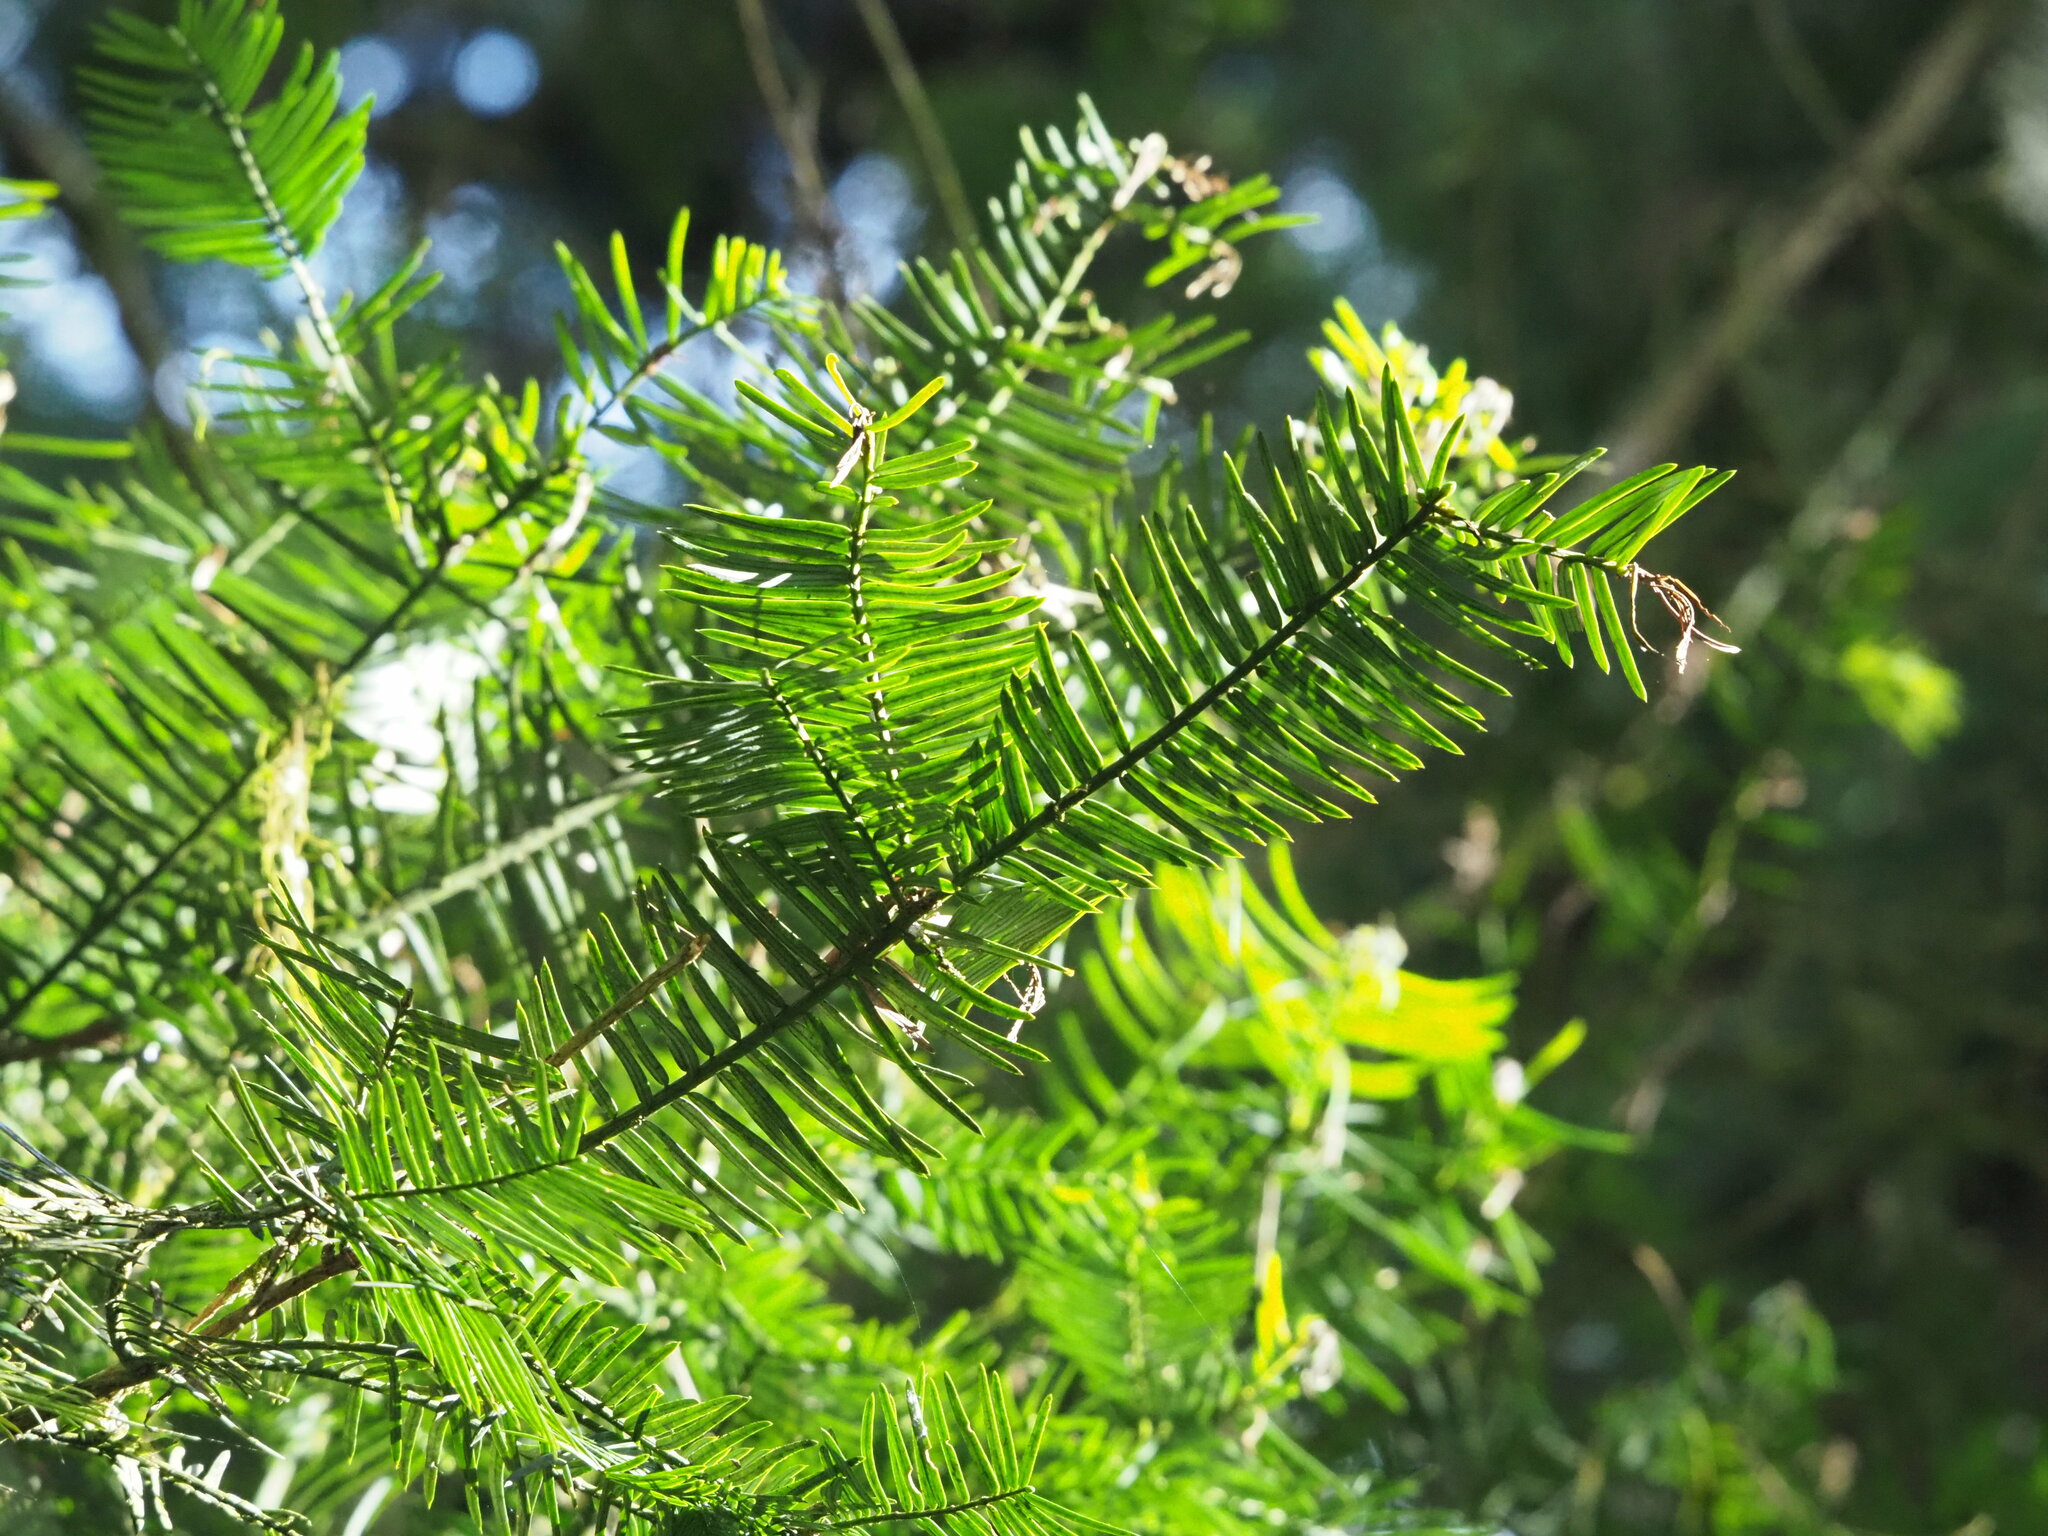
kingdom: Plantae
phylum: Tracheophyta
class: Pinopsida
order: Pinales
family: Cephalotaxaceae
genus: Cephalotaxus
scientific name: Cephalotaxus harringtonii
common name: Harrington's plum yew
